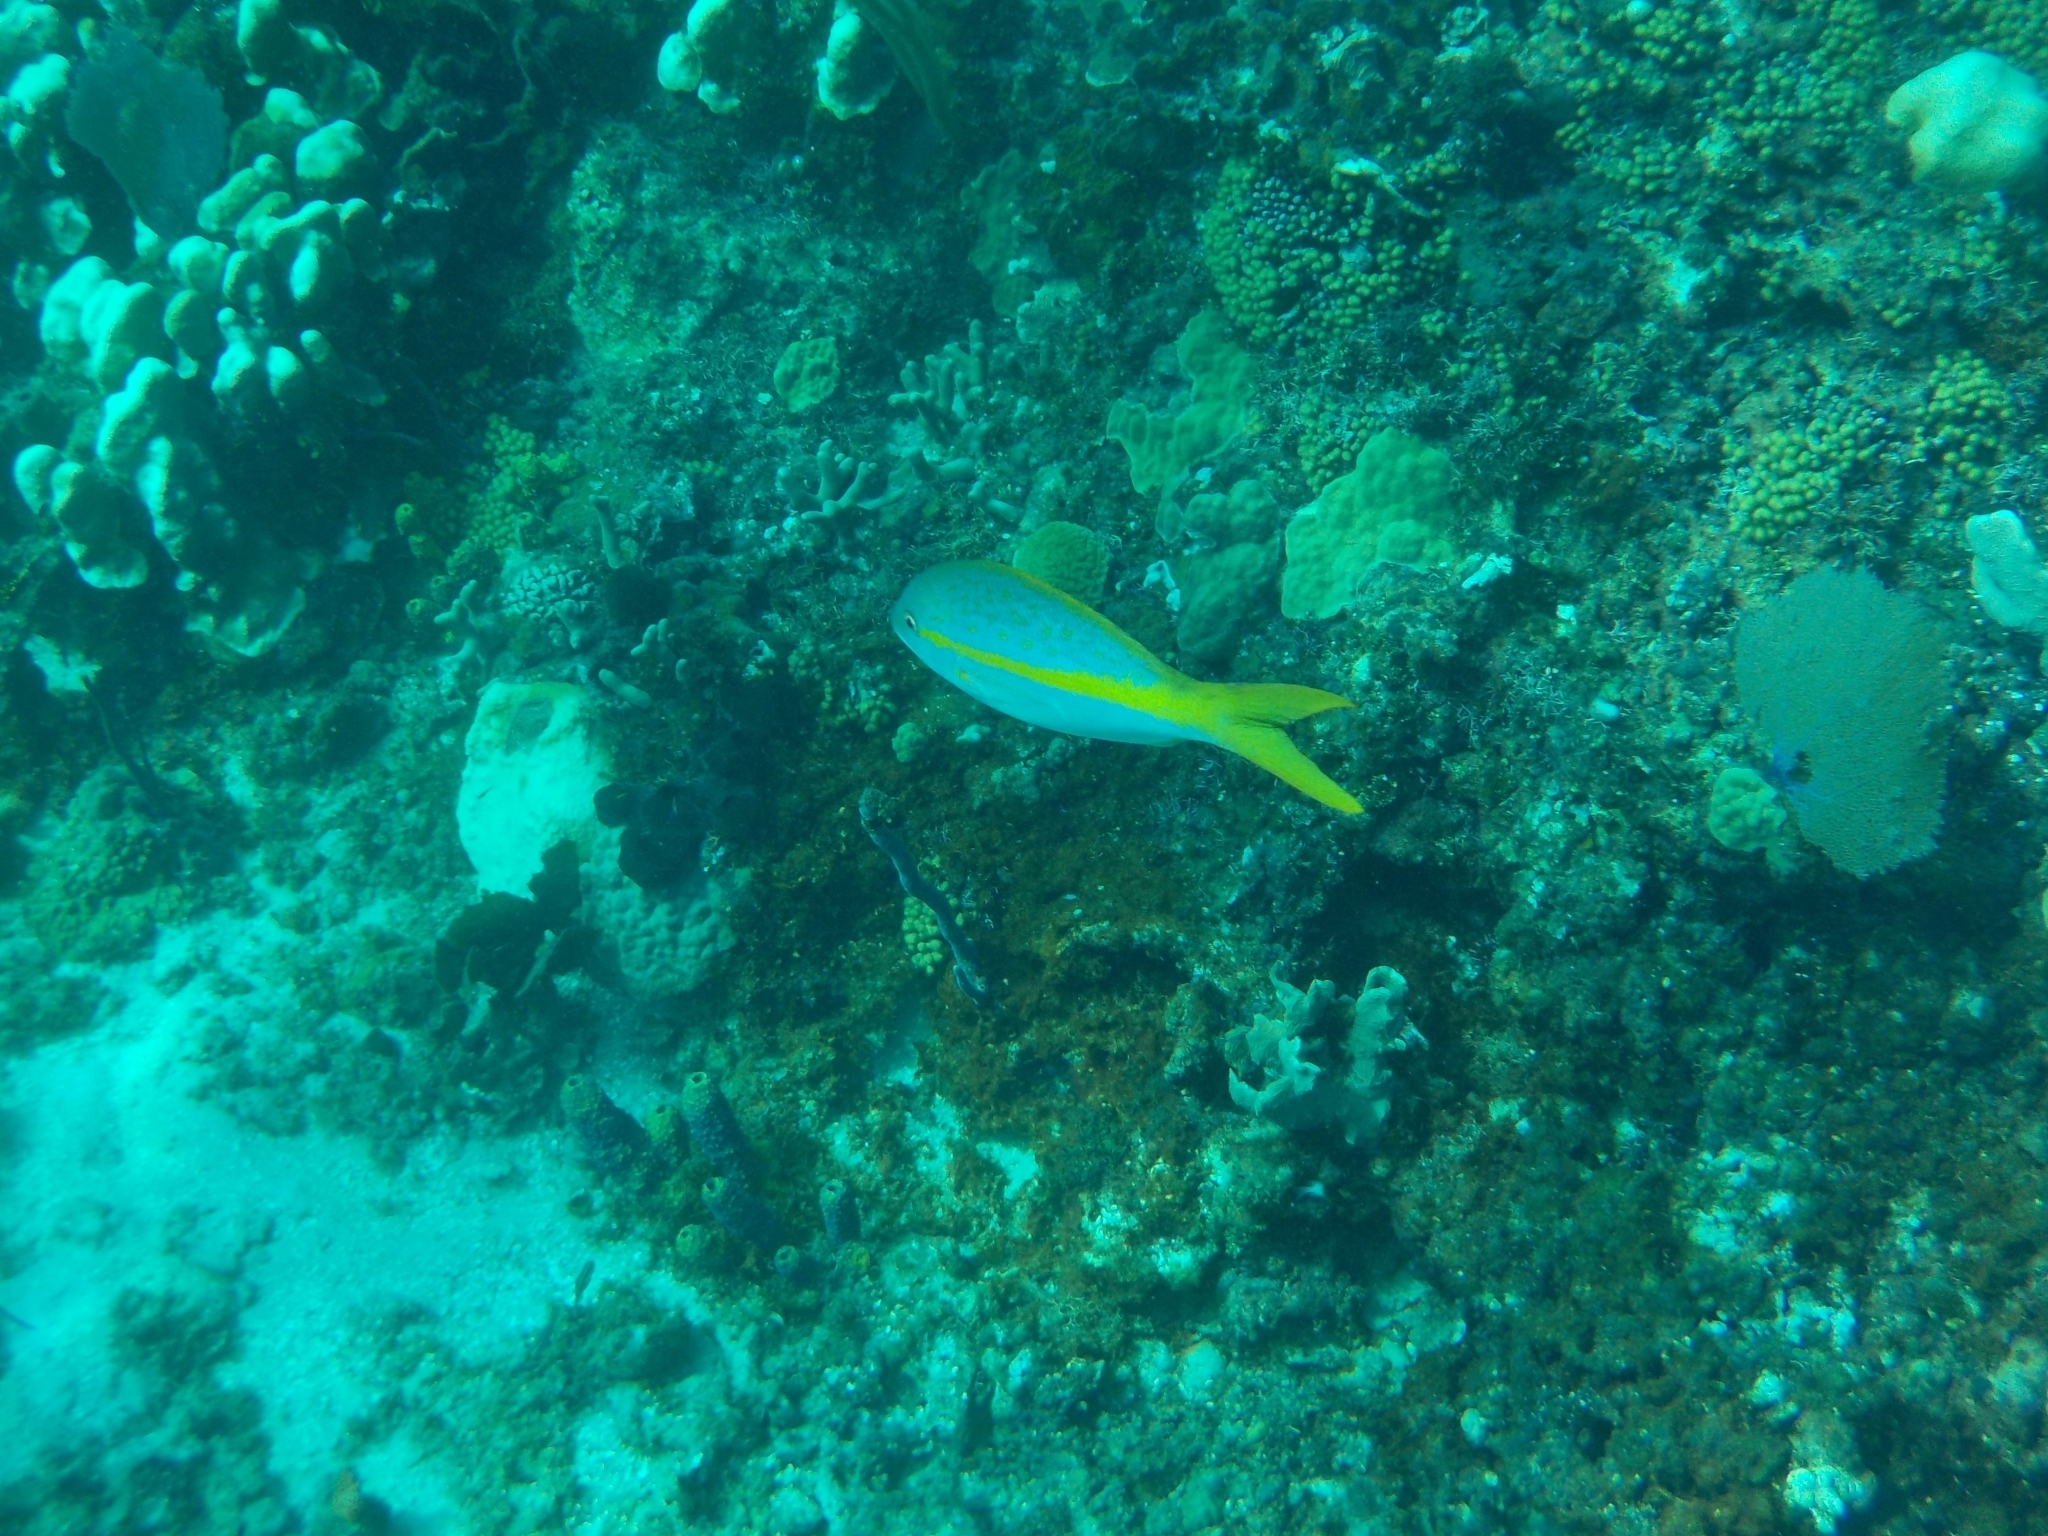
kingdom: Animalia
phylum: Chordata
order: Perciformes
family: Lutjanidae
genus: Ocyurus
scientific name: Ocyurus chrysurus
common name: Yellowtail snapper
